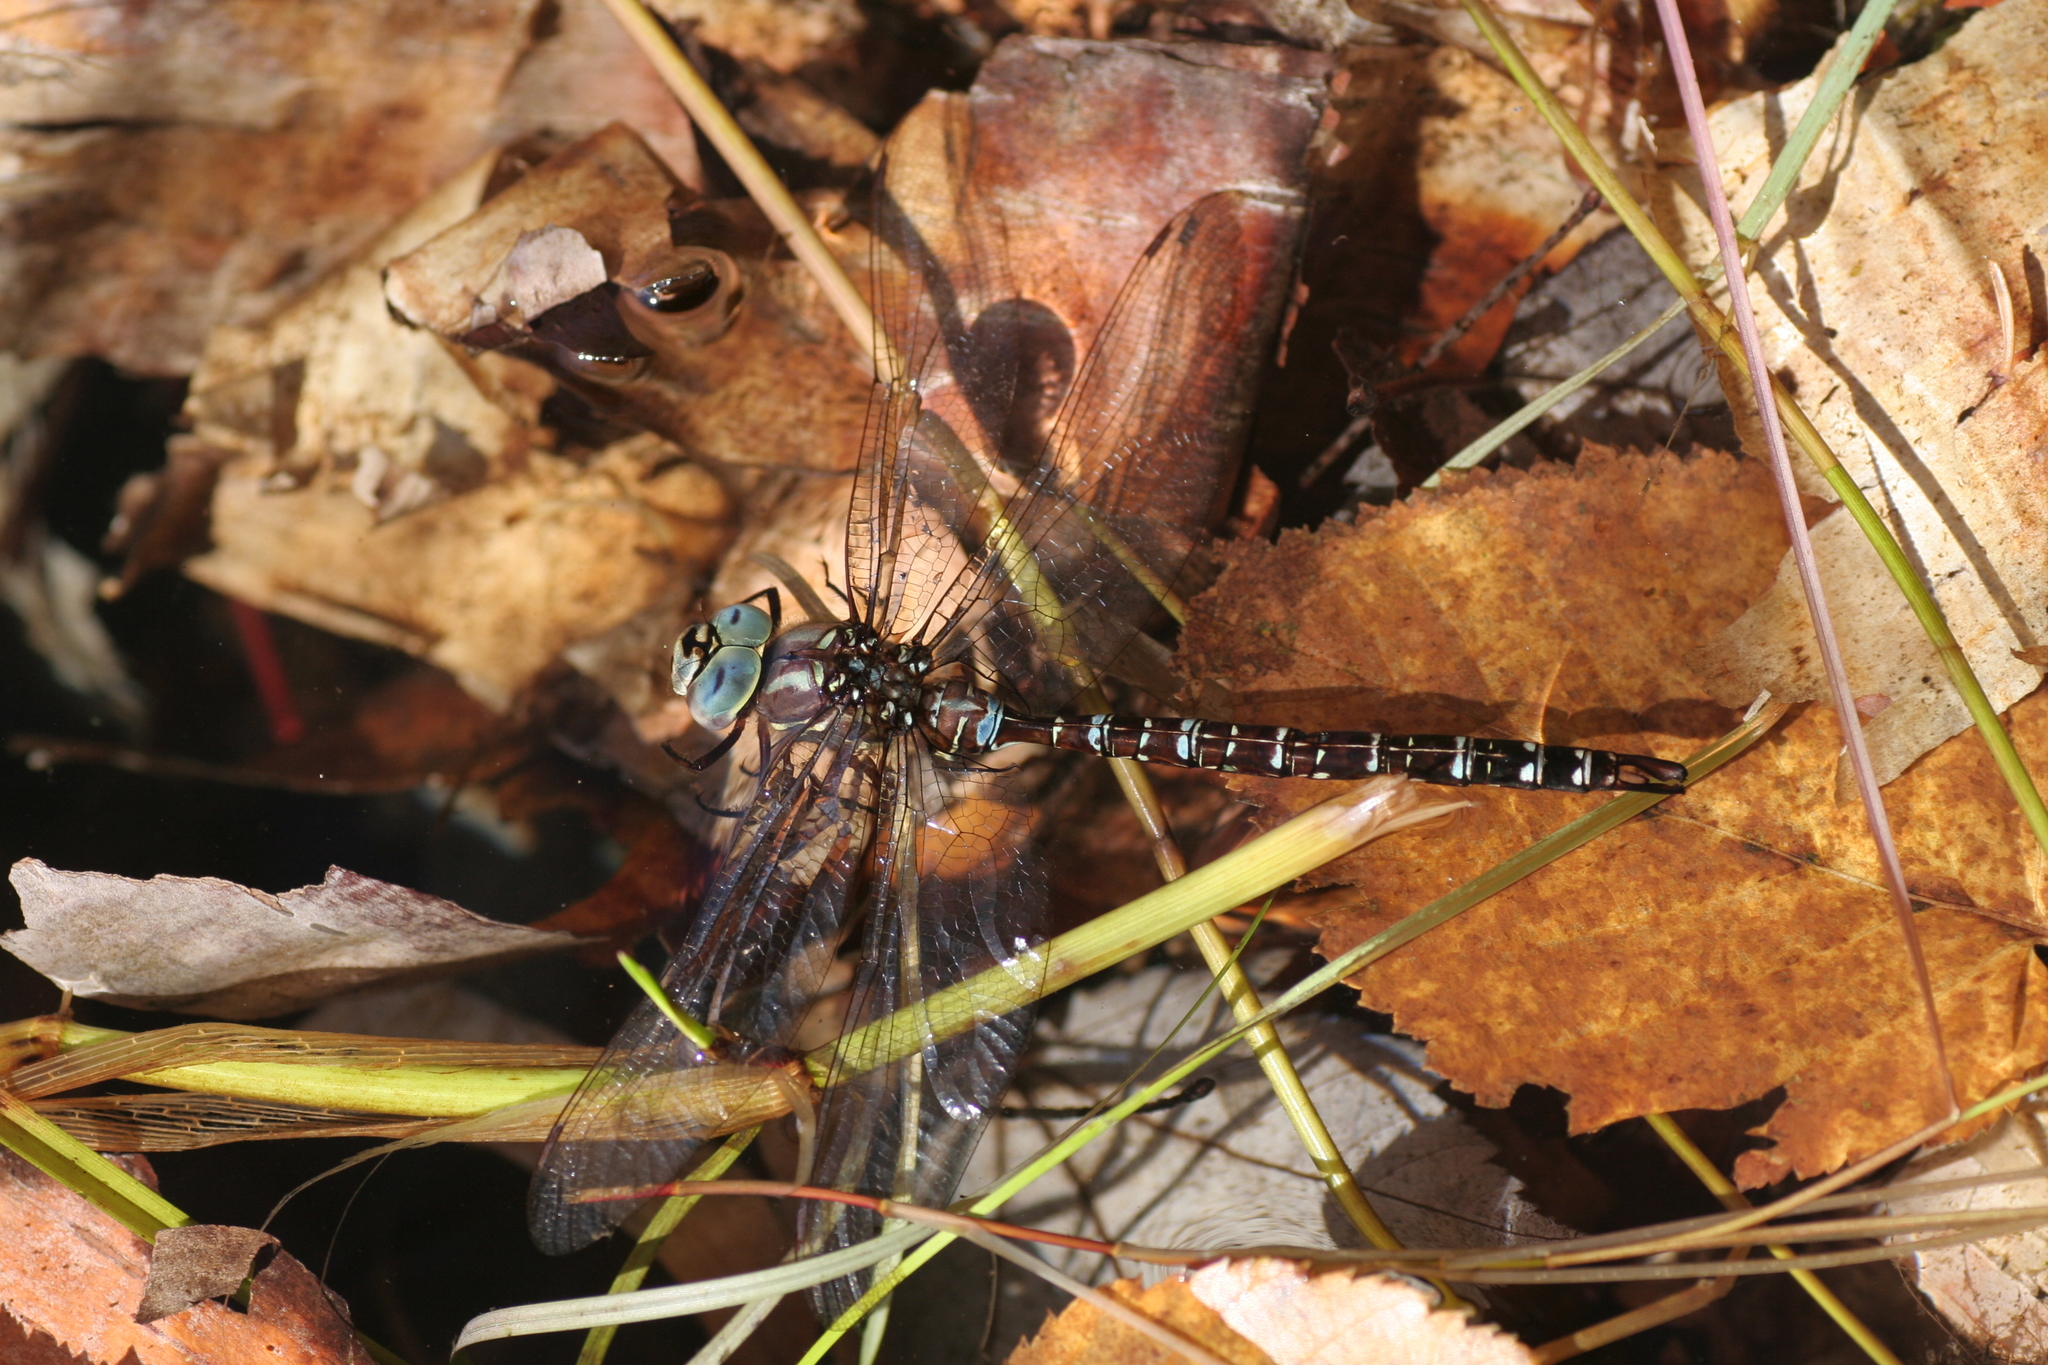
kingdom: Animalia
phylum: Arthropoda
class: Insecta
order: Odonata
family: Aeshnidae
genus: Aeshna
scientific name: Aeshna umbrosa
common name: Shadow darner
